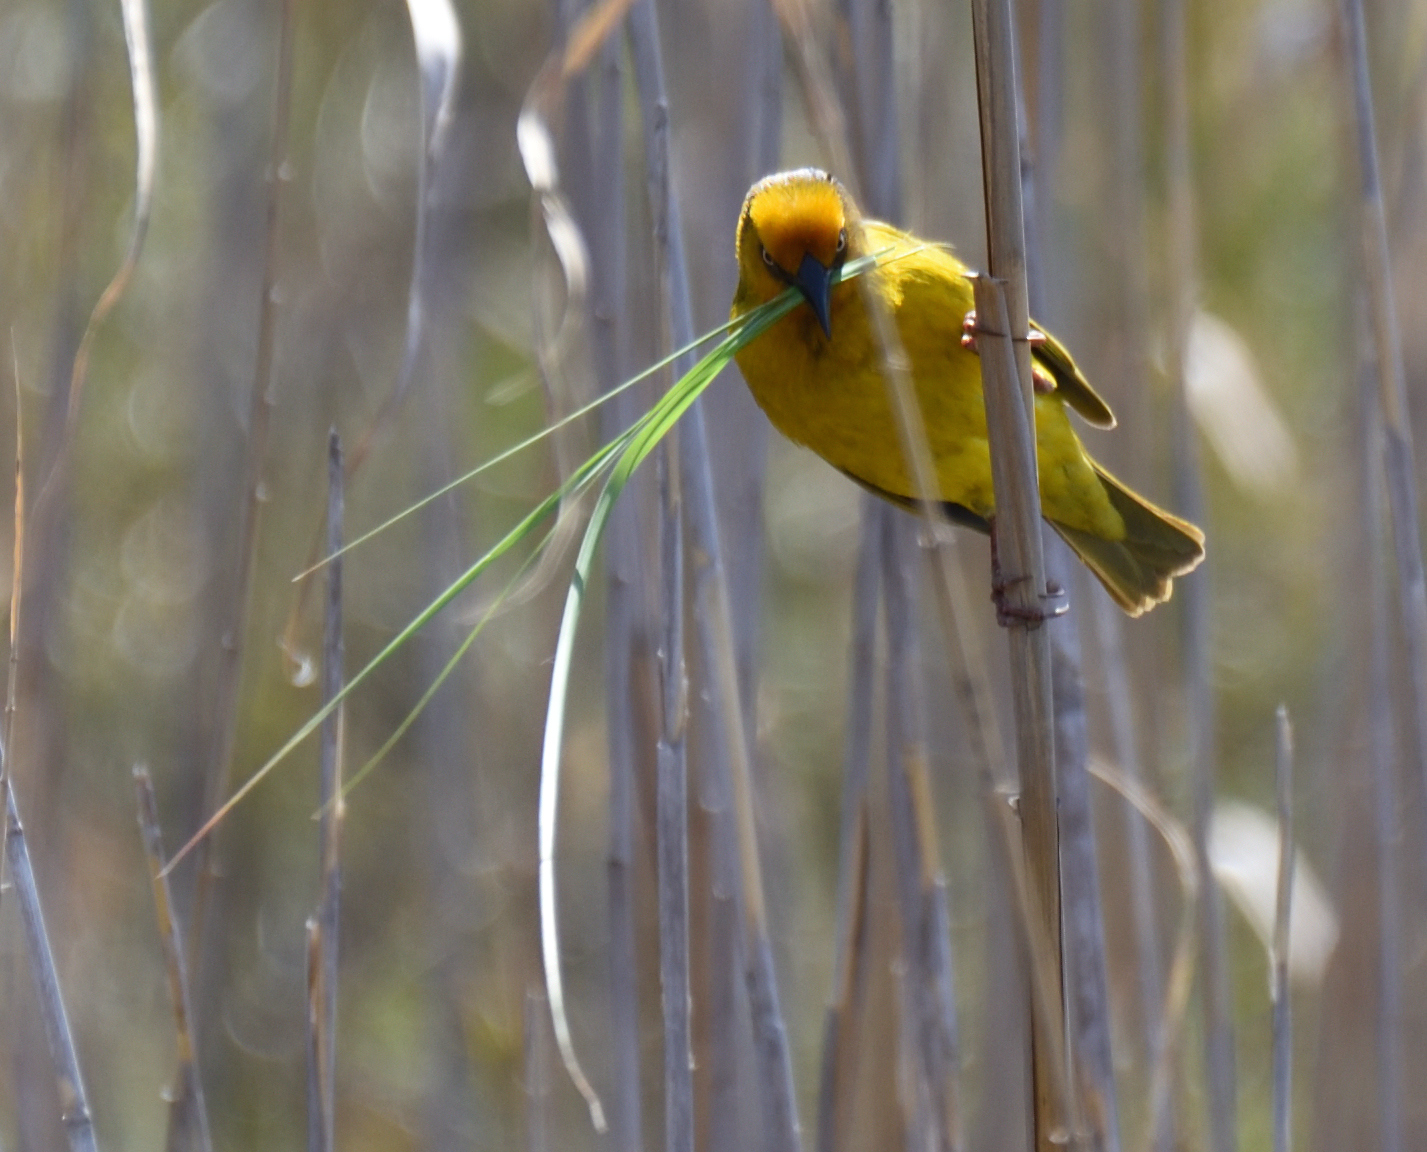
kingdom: Animalia
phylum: Chordata
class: Aves
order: Passeriformes
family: Ploceidae
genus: Ploceus
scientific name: Ploceus capensis
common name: Cape weaver
